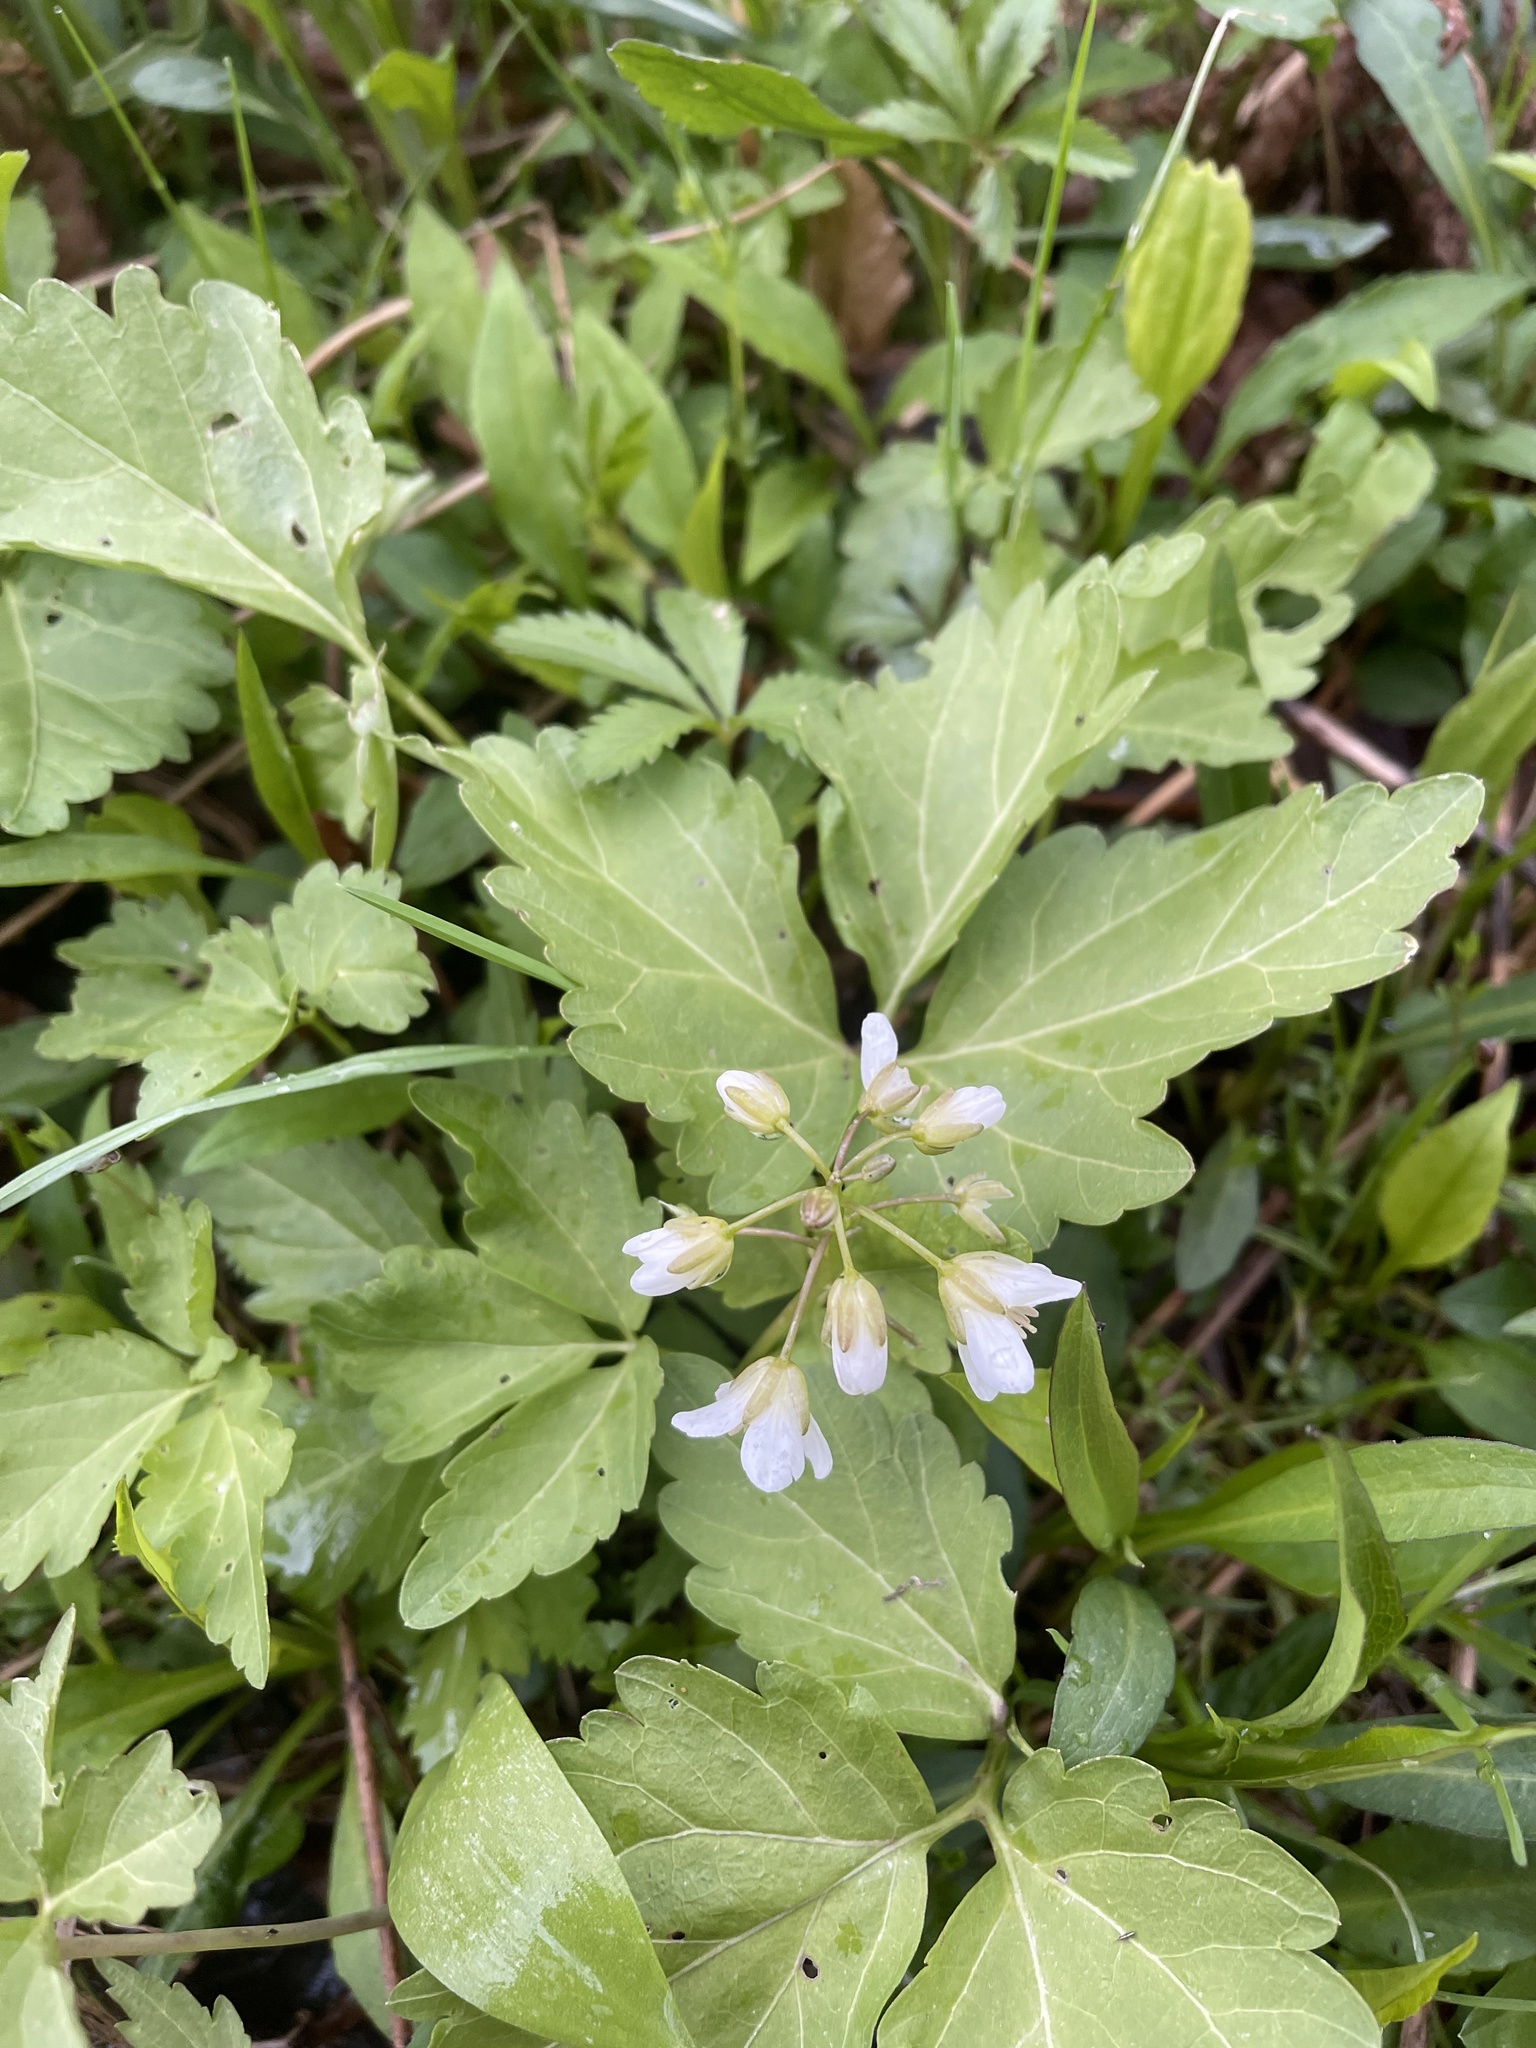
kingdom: Plantae
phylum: Tracheophyta
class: Magnoliopsida
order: Brassicales
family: Brassicaceae
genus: Cardamine
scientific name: Cardamine diphylla
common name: Broad-leaved toothwort
